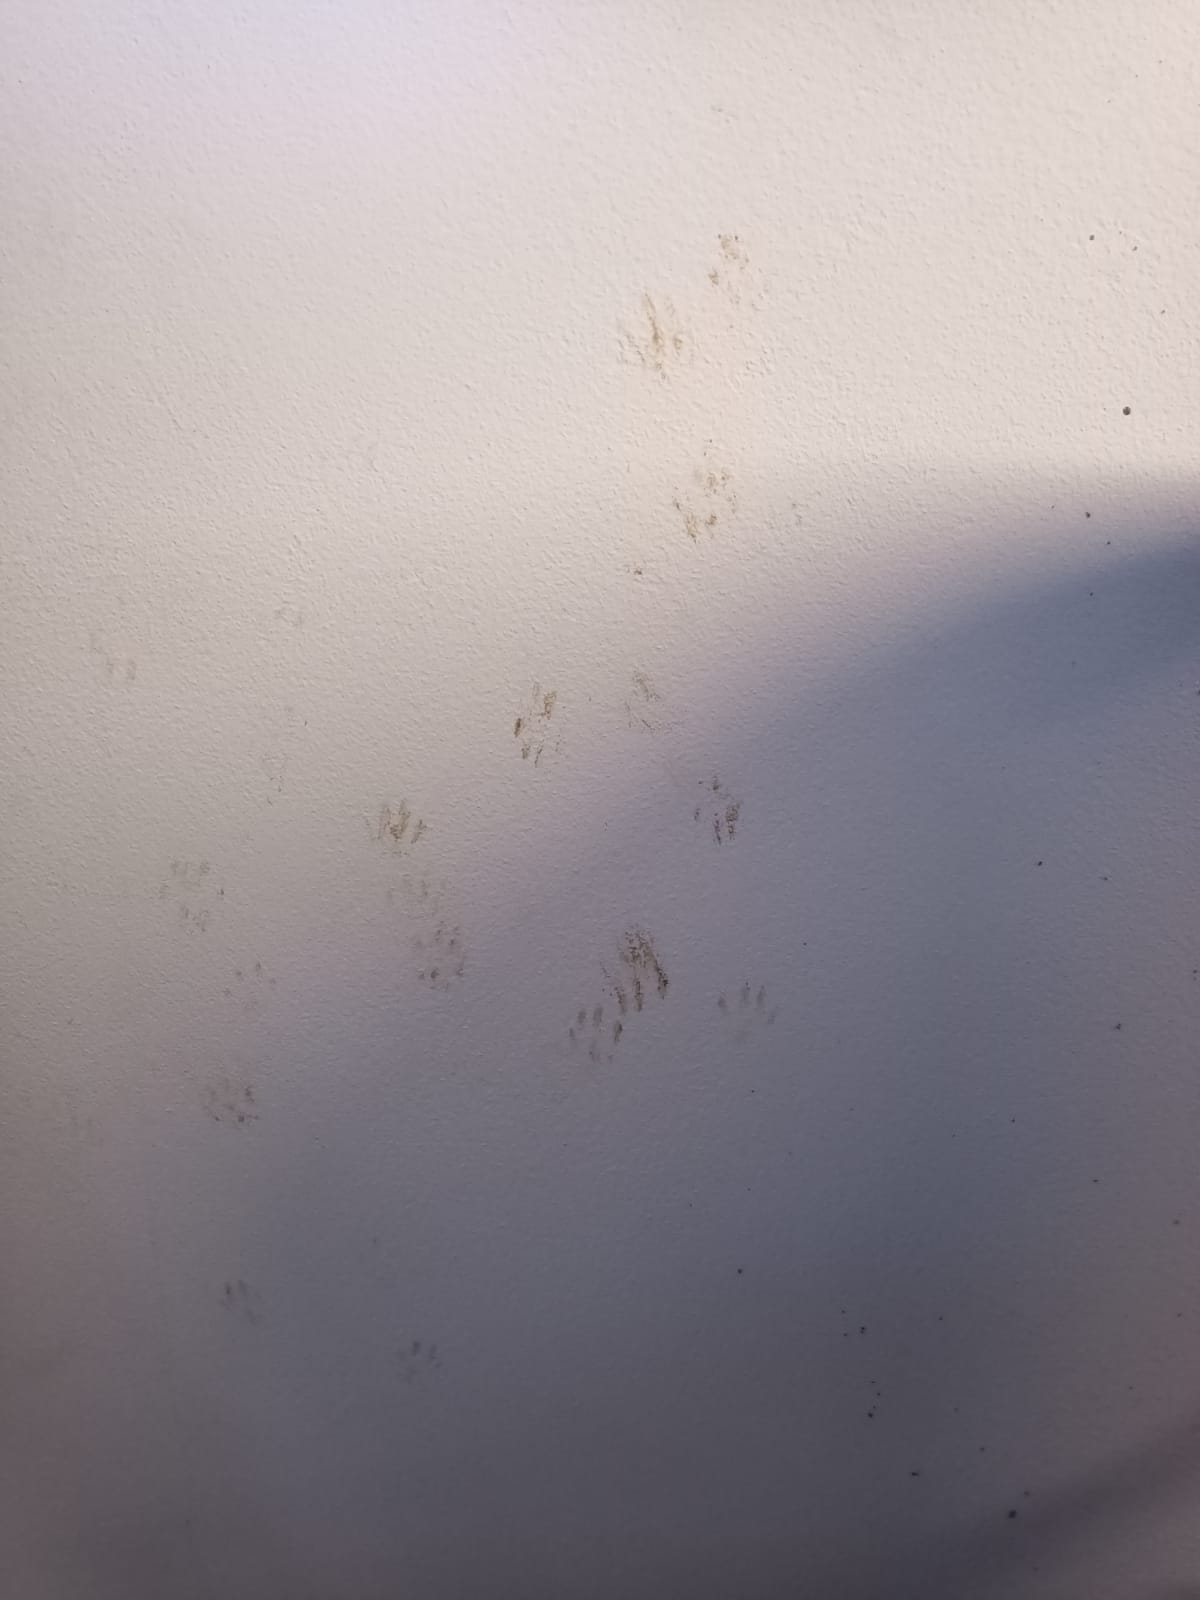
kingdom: Animalia
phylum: Chordata
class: Mammalia
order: Carnivora
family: Procyonidae
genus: Procyon
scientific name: Procyon lotor
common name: Raccoon
